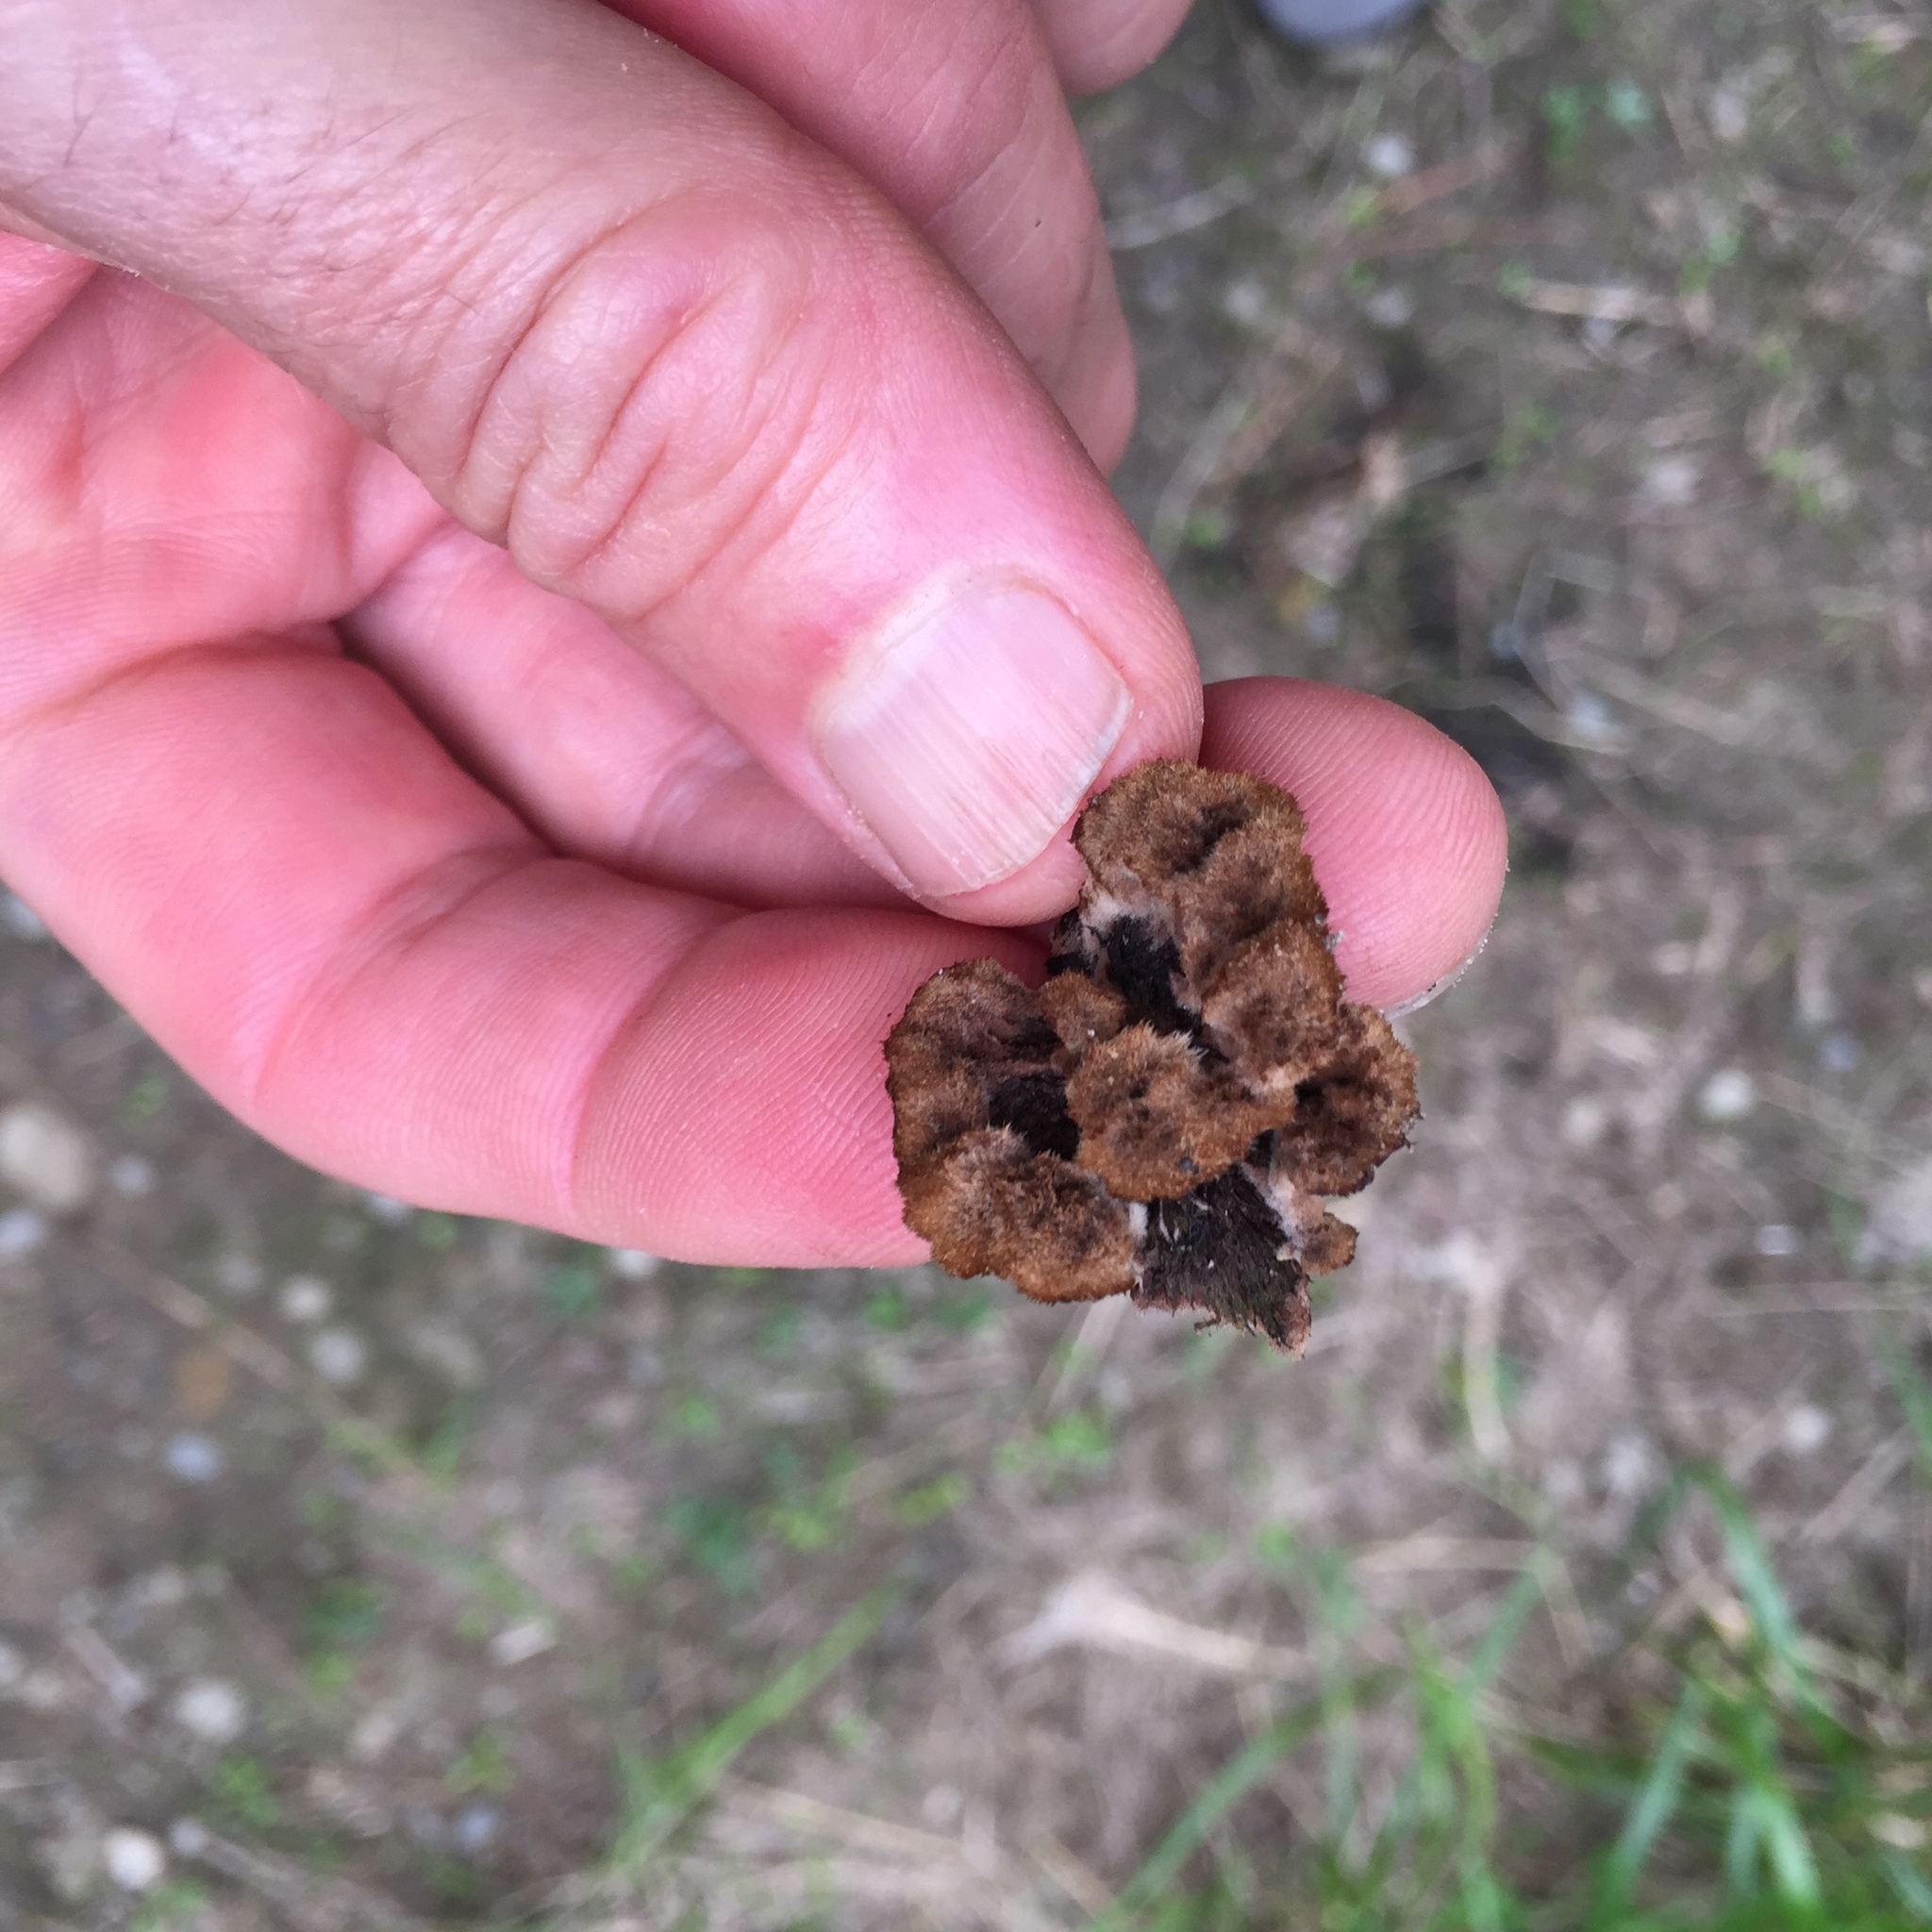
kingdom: Fungi
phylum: Basidiomycota
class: Agaricomycetes
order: Thelephorales
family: Thelephoraceae
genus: Thelephora
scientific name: Thelephora terrestris
